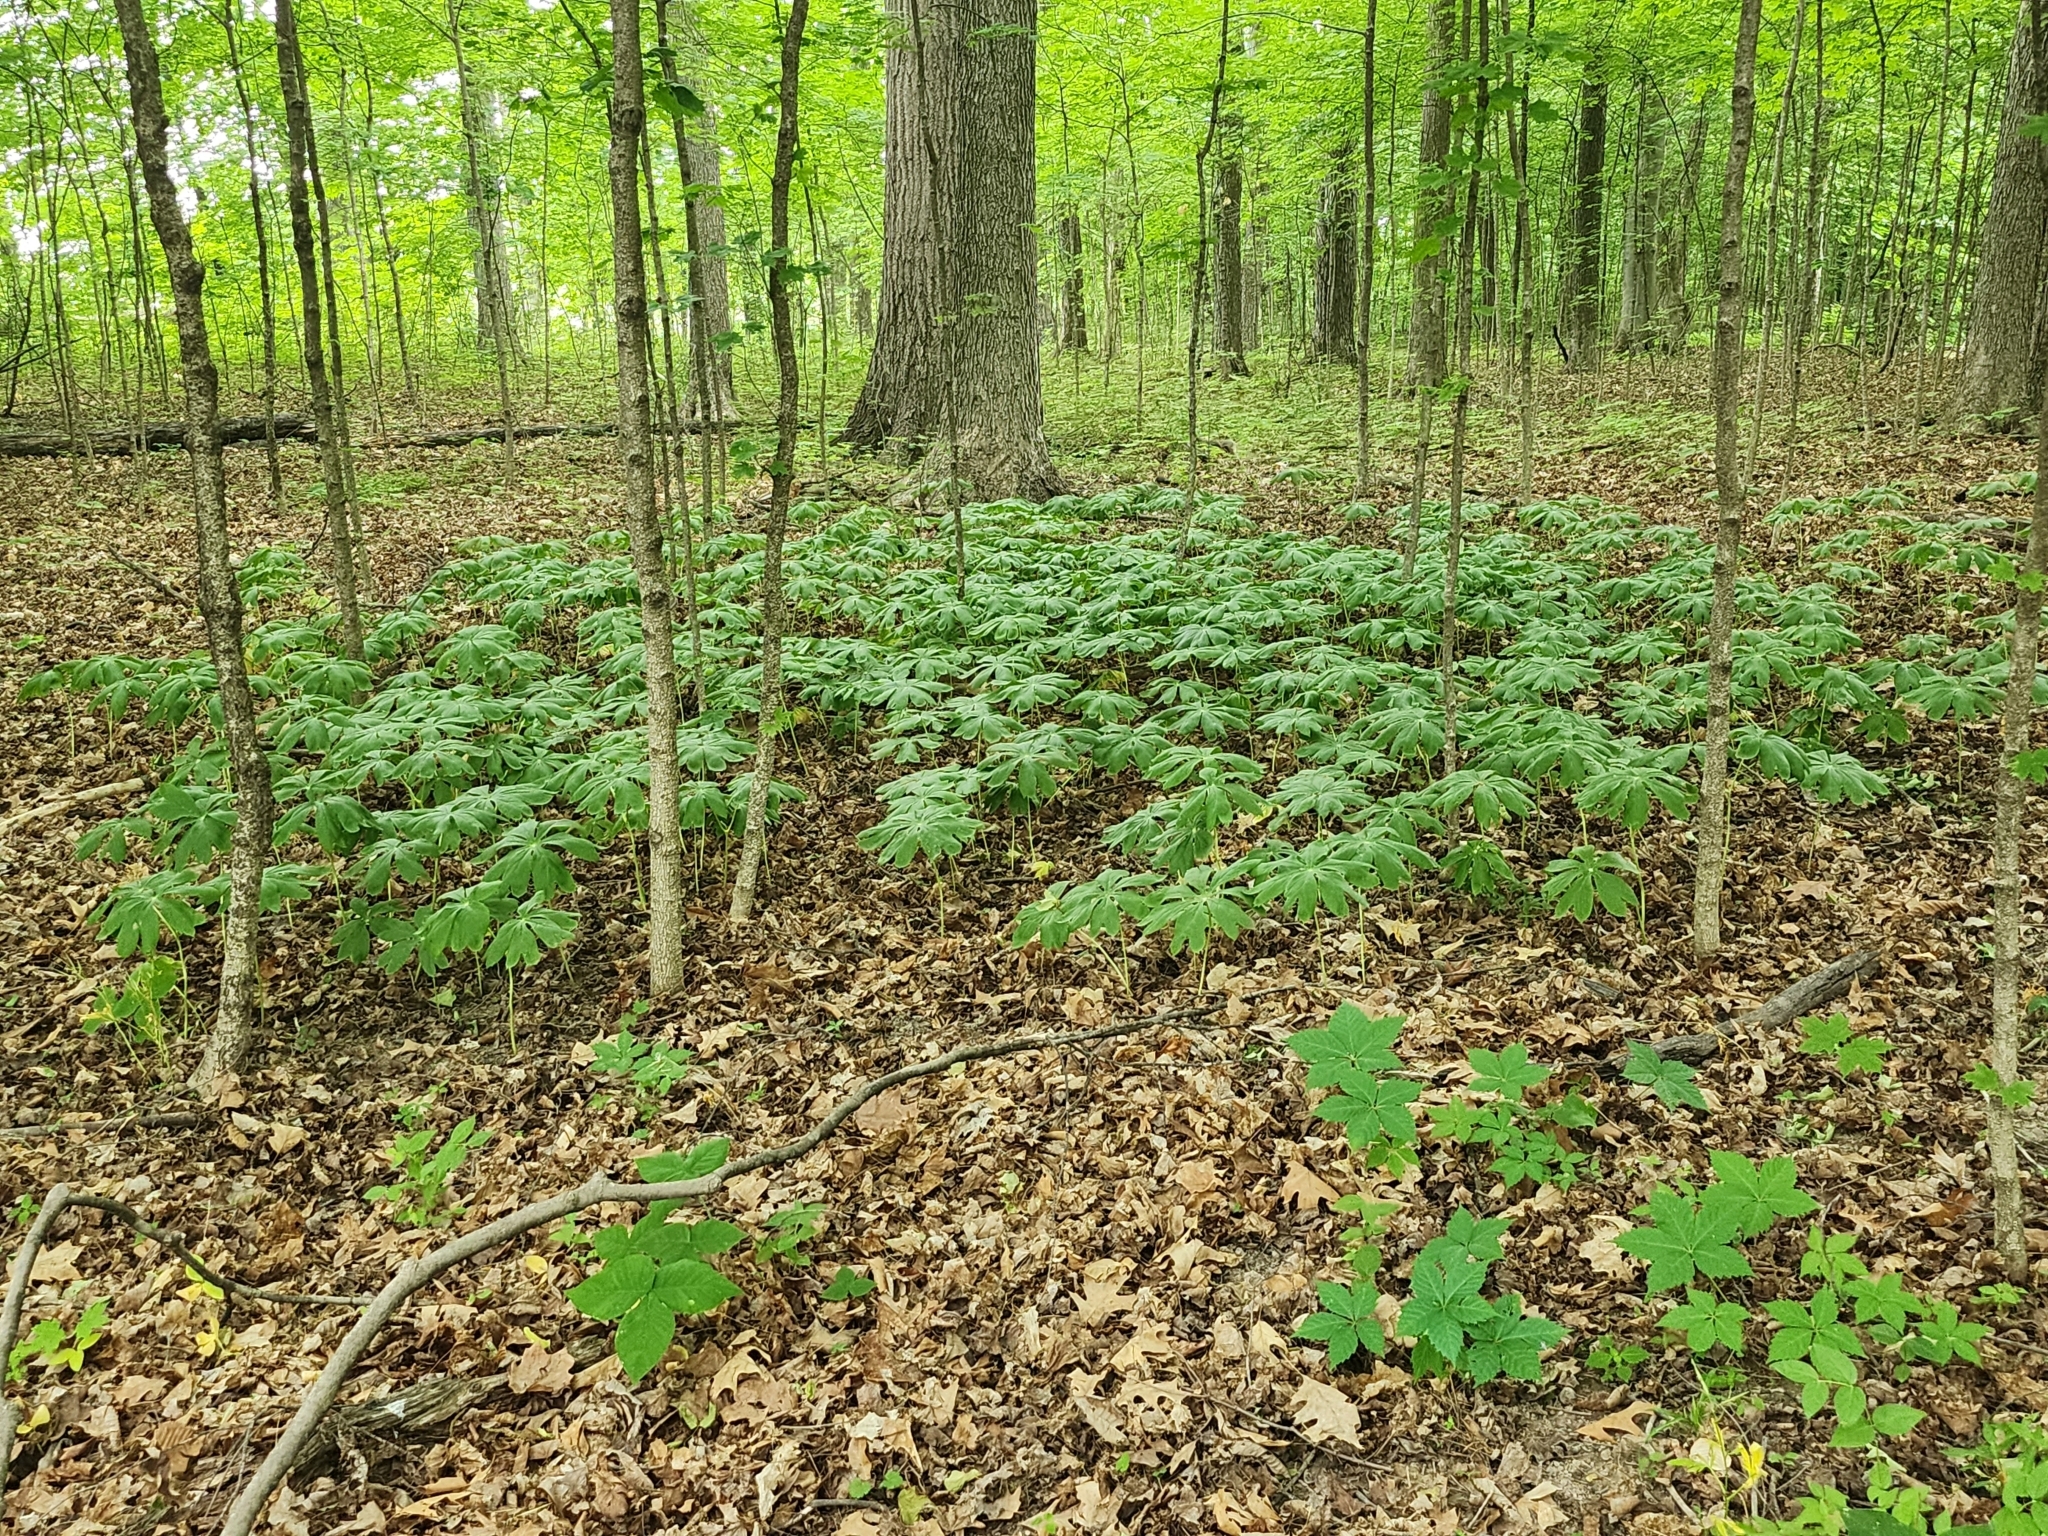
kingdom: Plantae
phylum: Tracheophyta
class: Magnoliopsida
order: Ranunculales
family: Berberidaceae
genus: Podophyllum
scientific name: Podophyllum peltatum
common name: Wild mandrake
